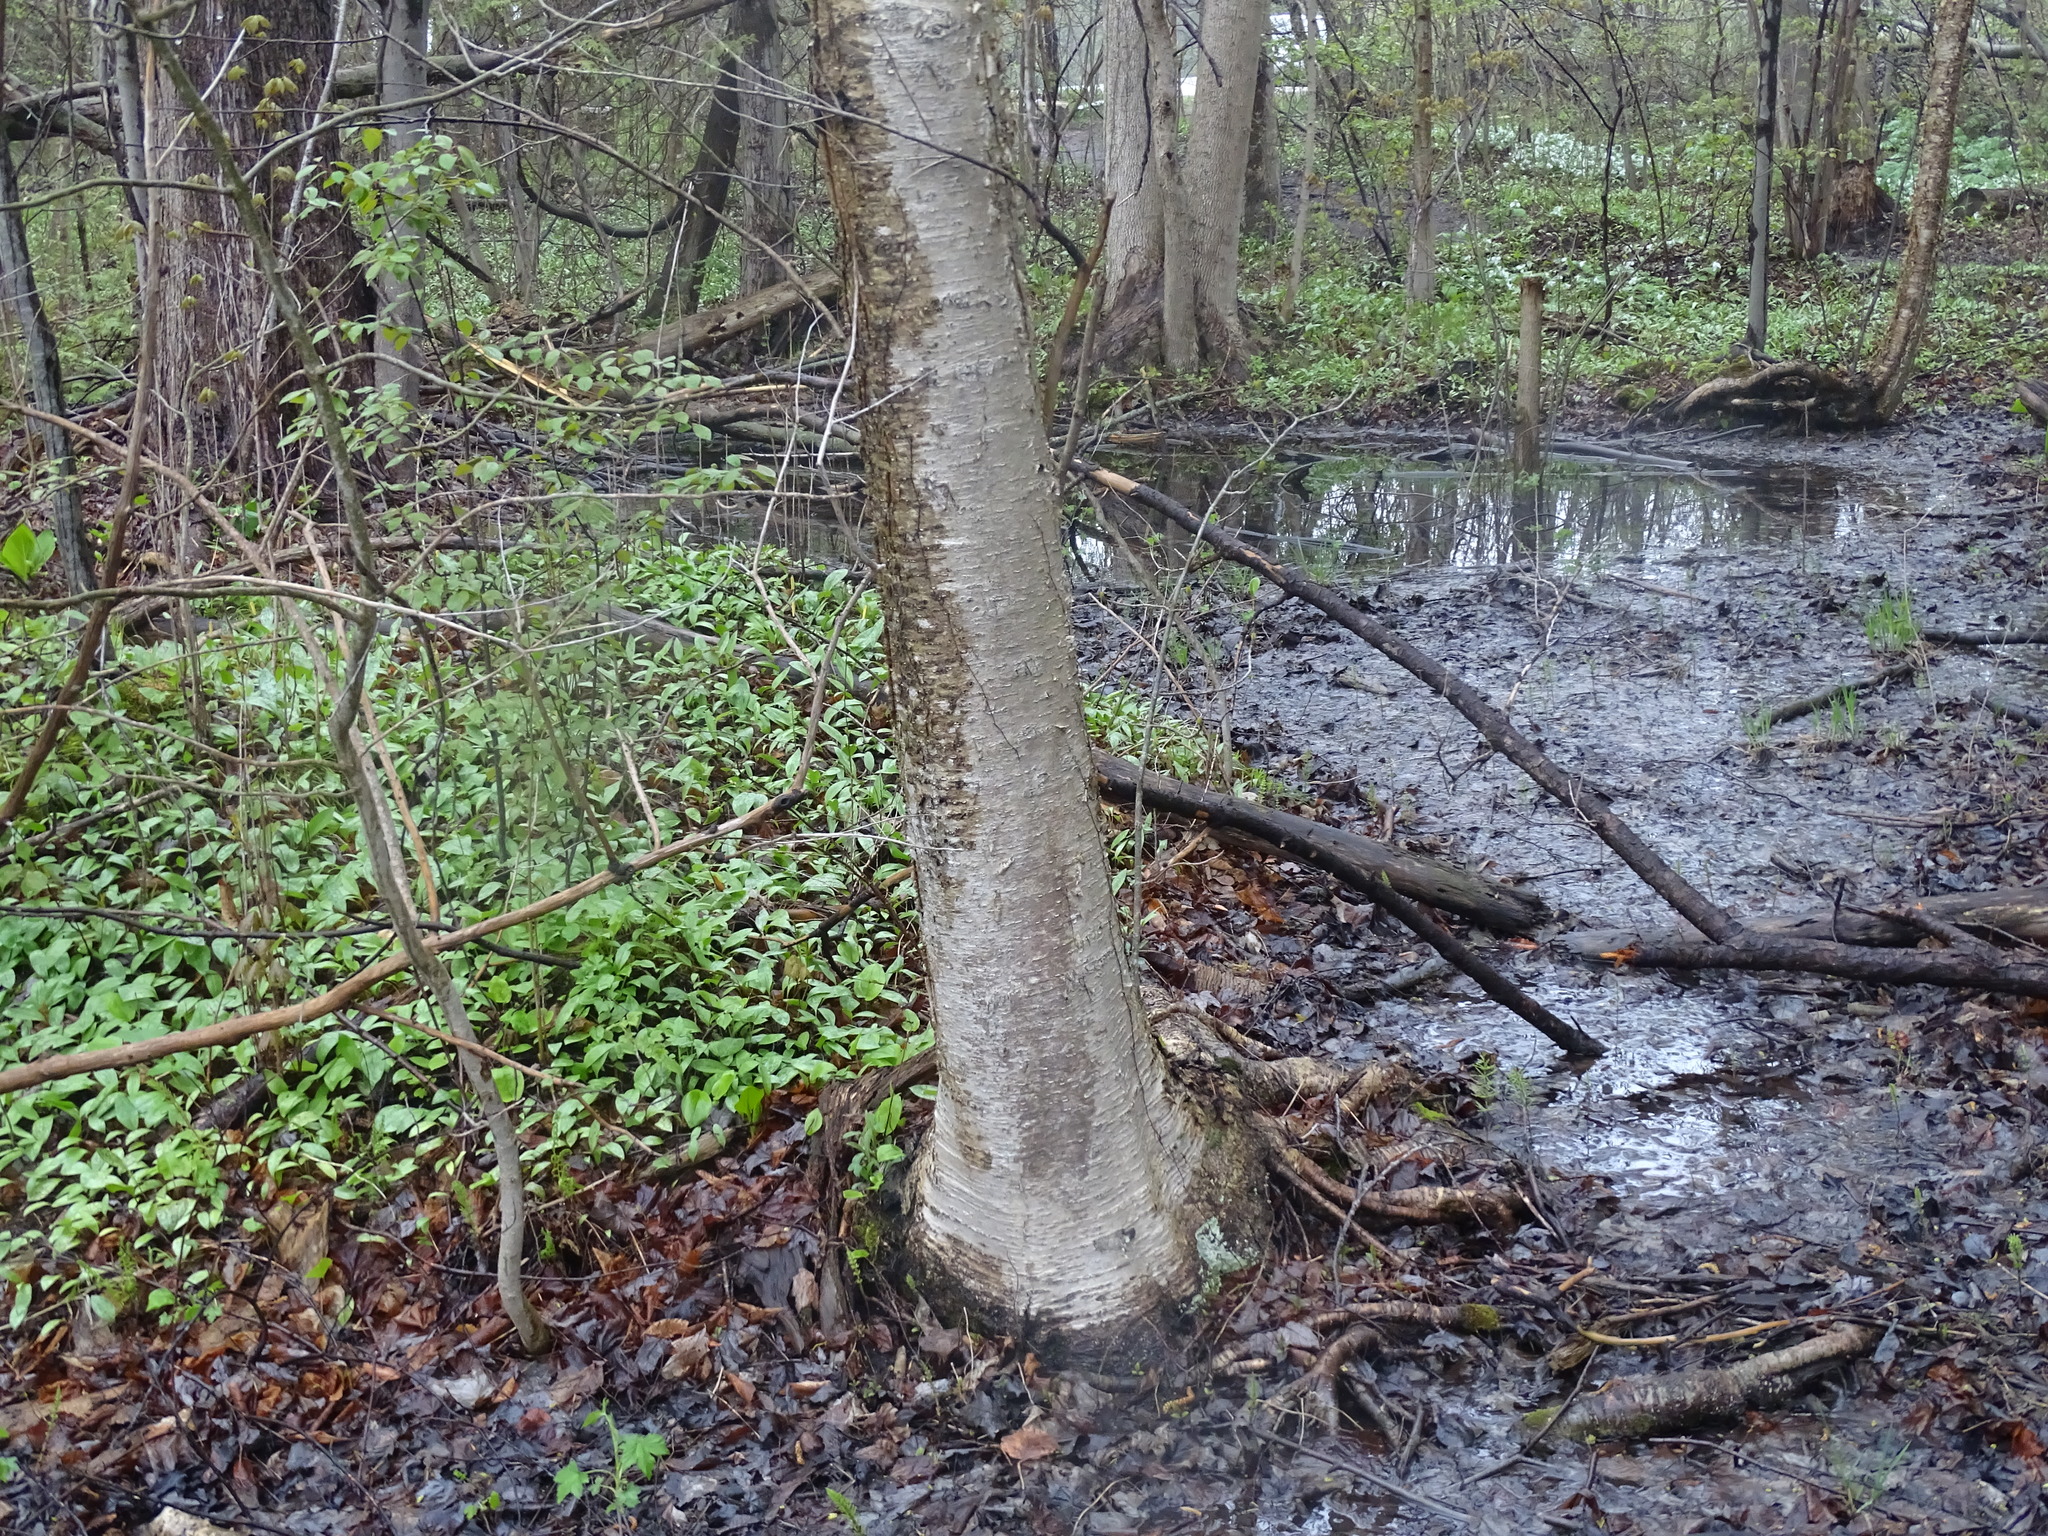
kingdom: Plantae
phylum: Tracheophyta
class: Magnoliopsida
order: Fagales
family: Betulaceae
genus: Betula
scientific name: Betula alleghaniensis
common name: Yellow birch
